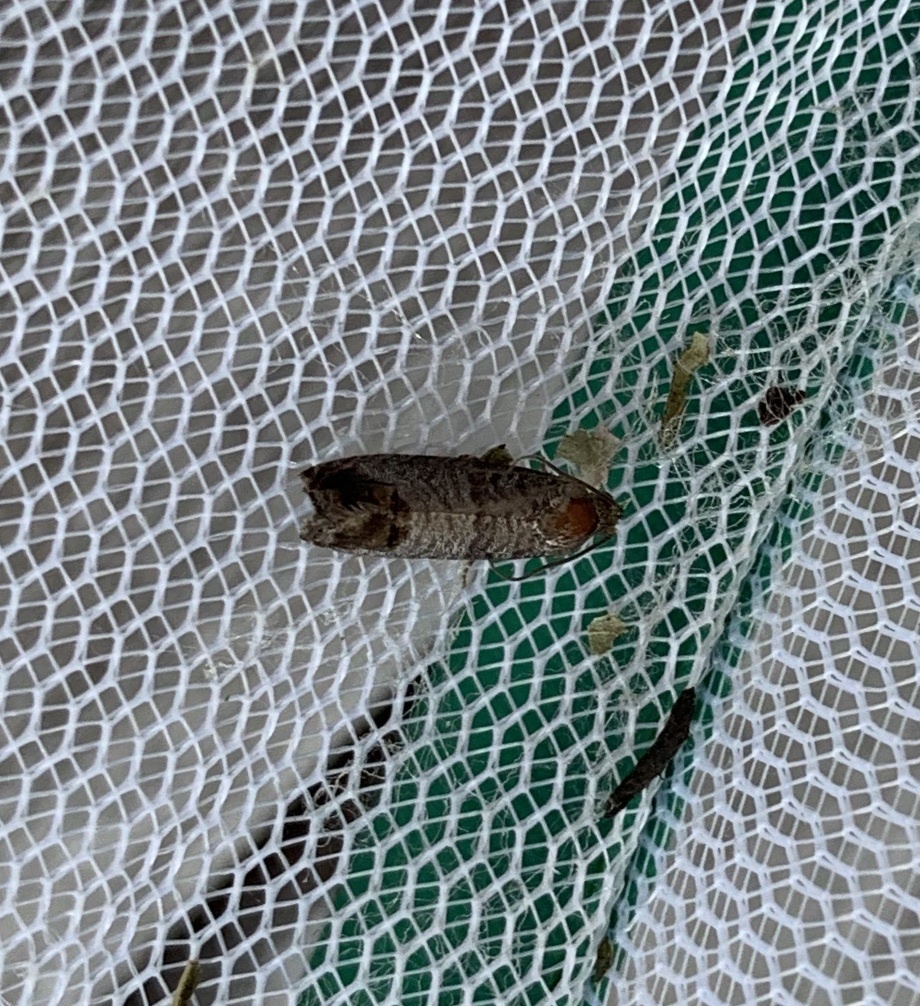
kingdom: Animalia
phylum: Arthropoda
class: Insecta
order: Lepidoptera
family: Tortricidae
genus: Cydia
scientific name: Cydia pomonella
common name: Codling moth
